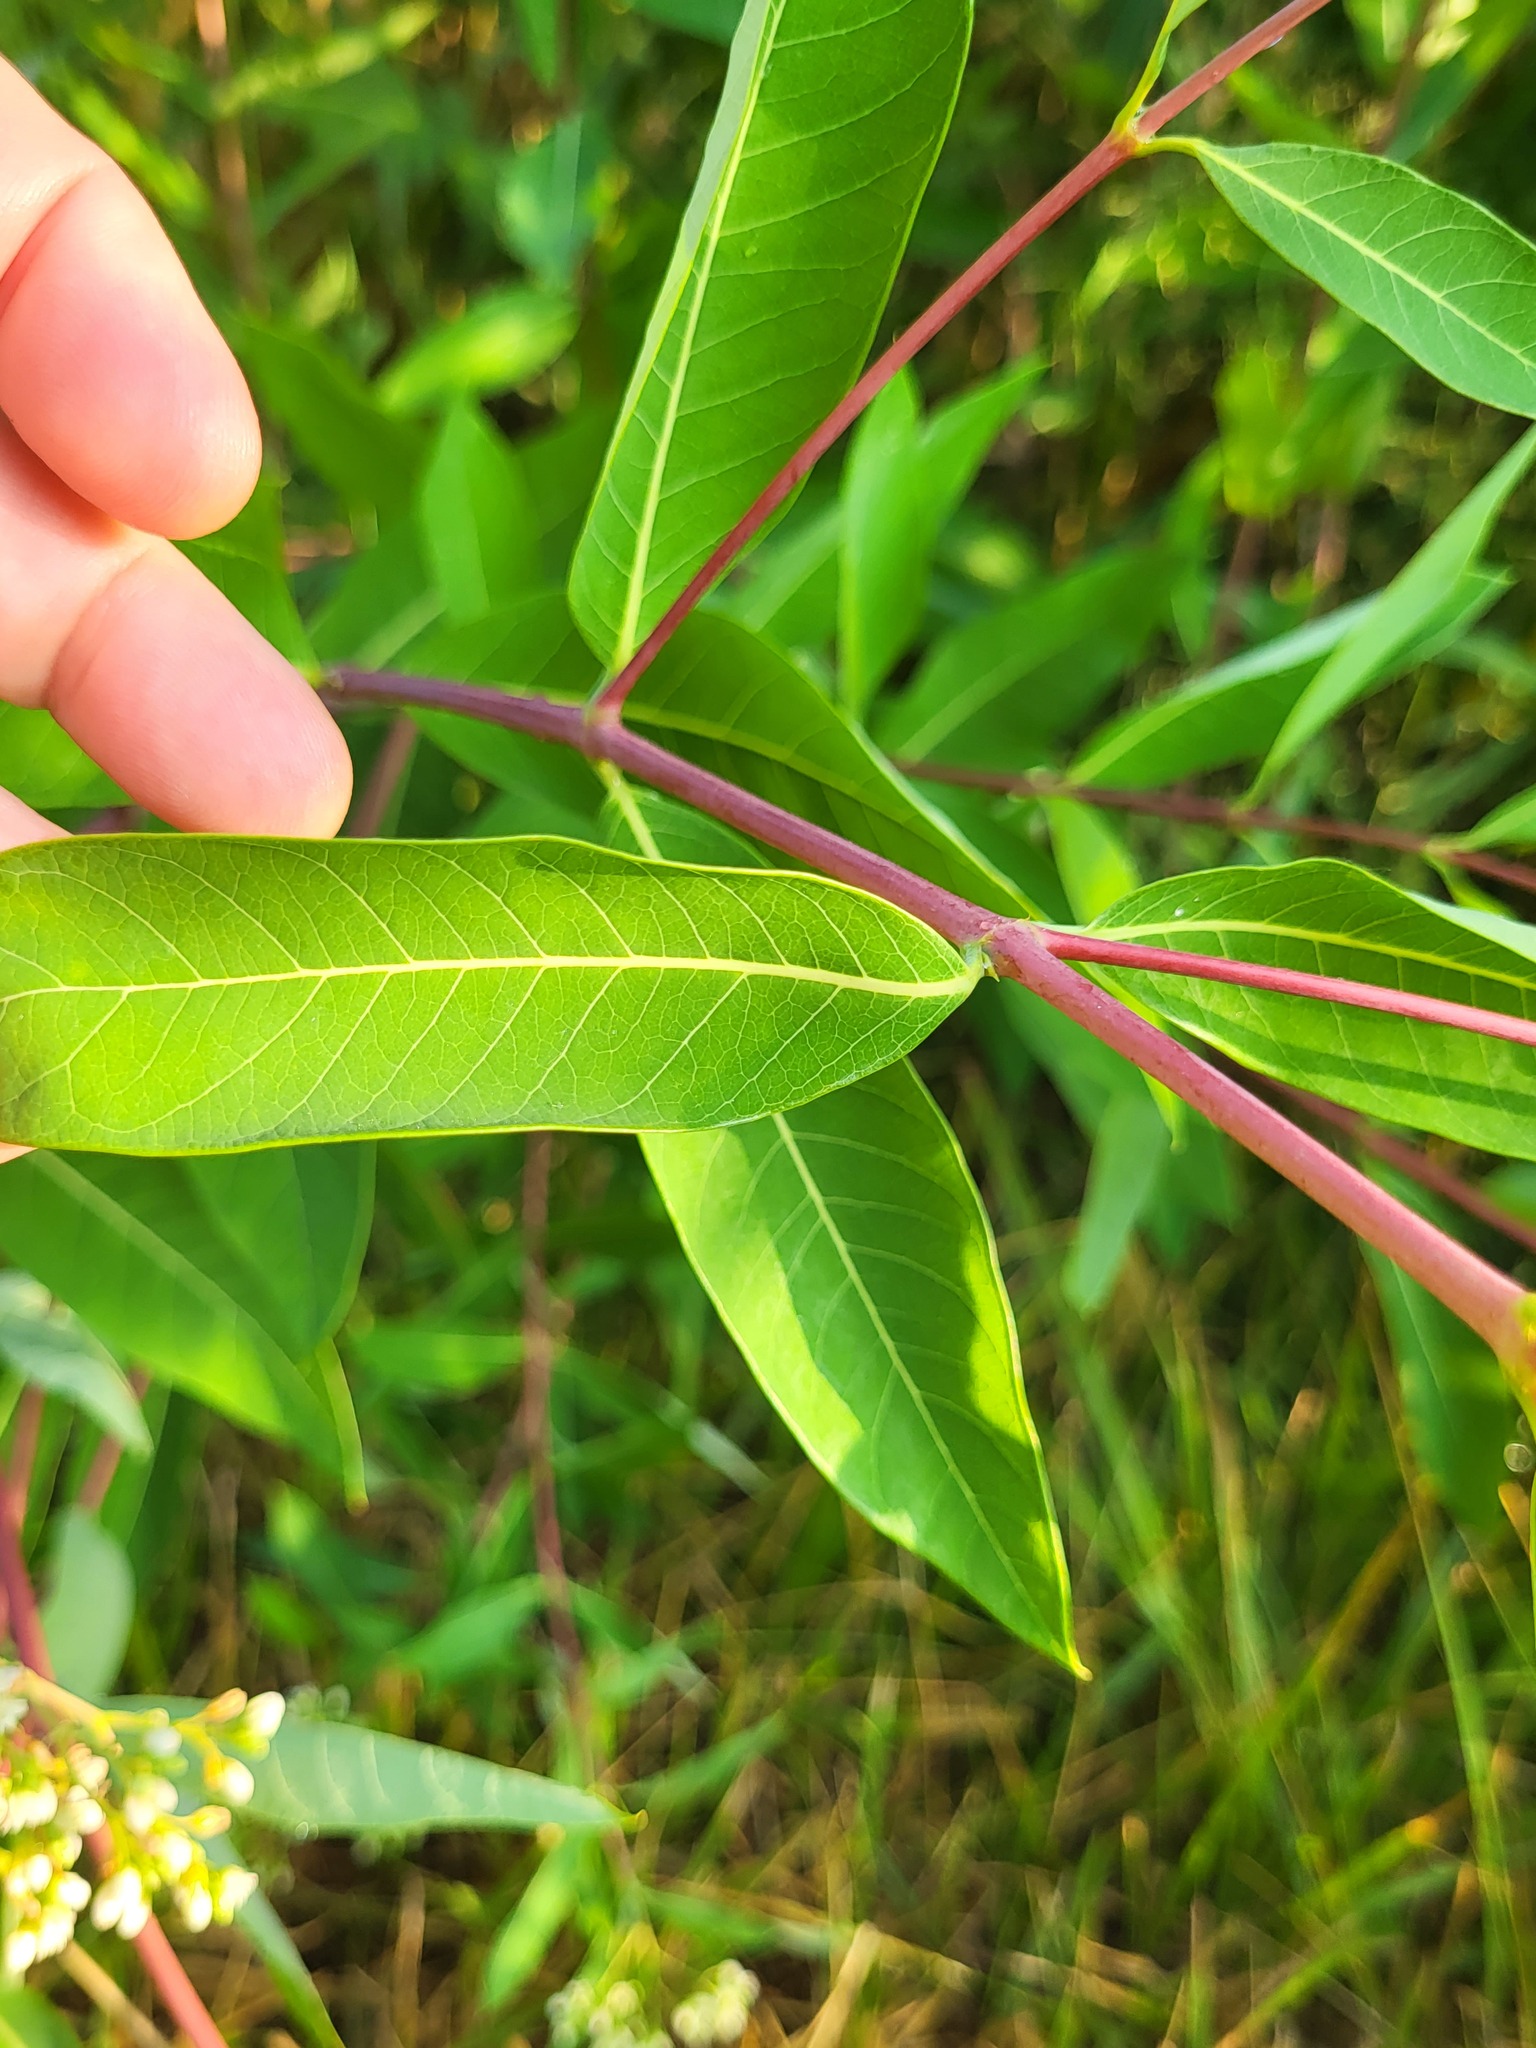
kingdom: Plantae
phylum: Tracheophyta
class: Magnoliopsida
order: Gentianales
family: Apocynaceae
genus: Apocynum
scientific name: Apocynum cannabinum
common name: Hemp dogbane
